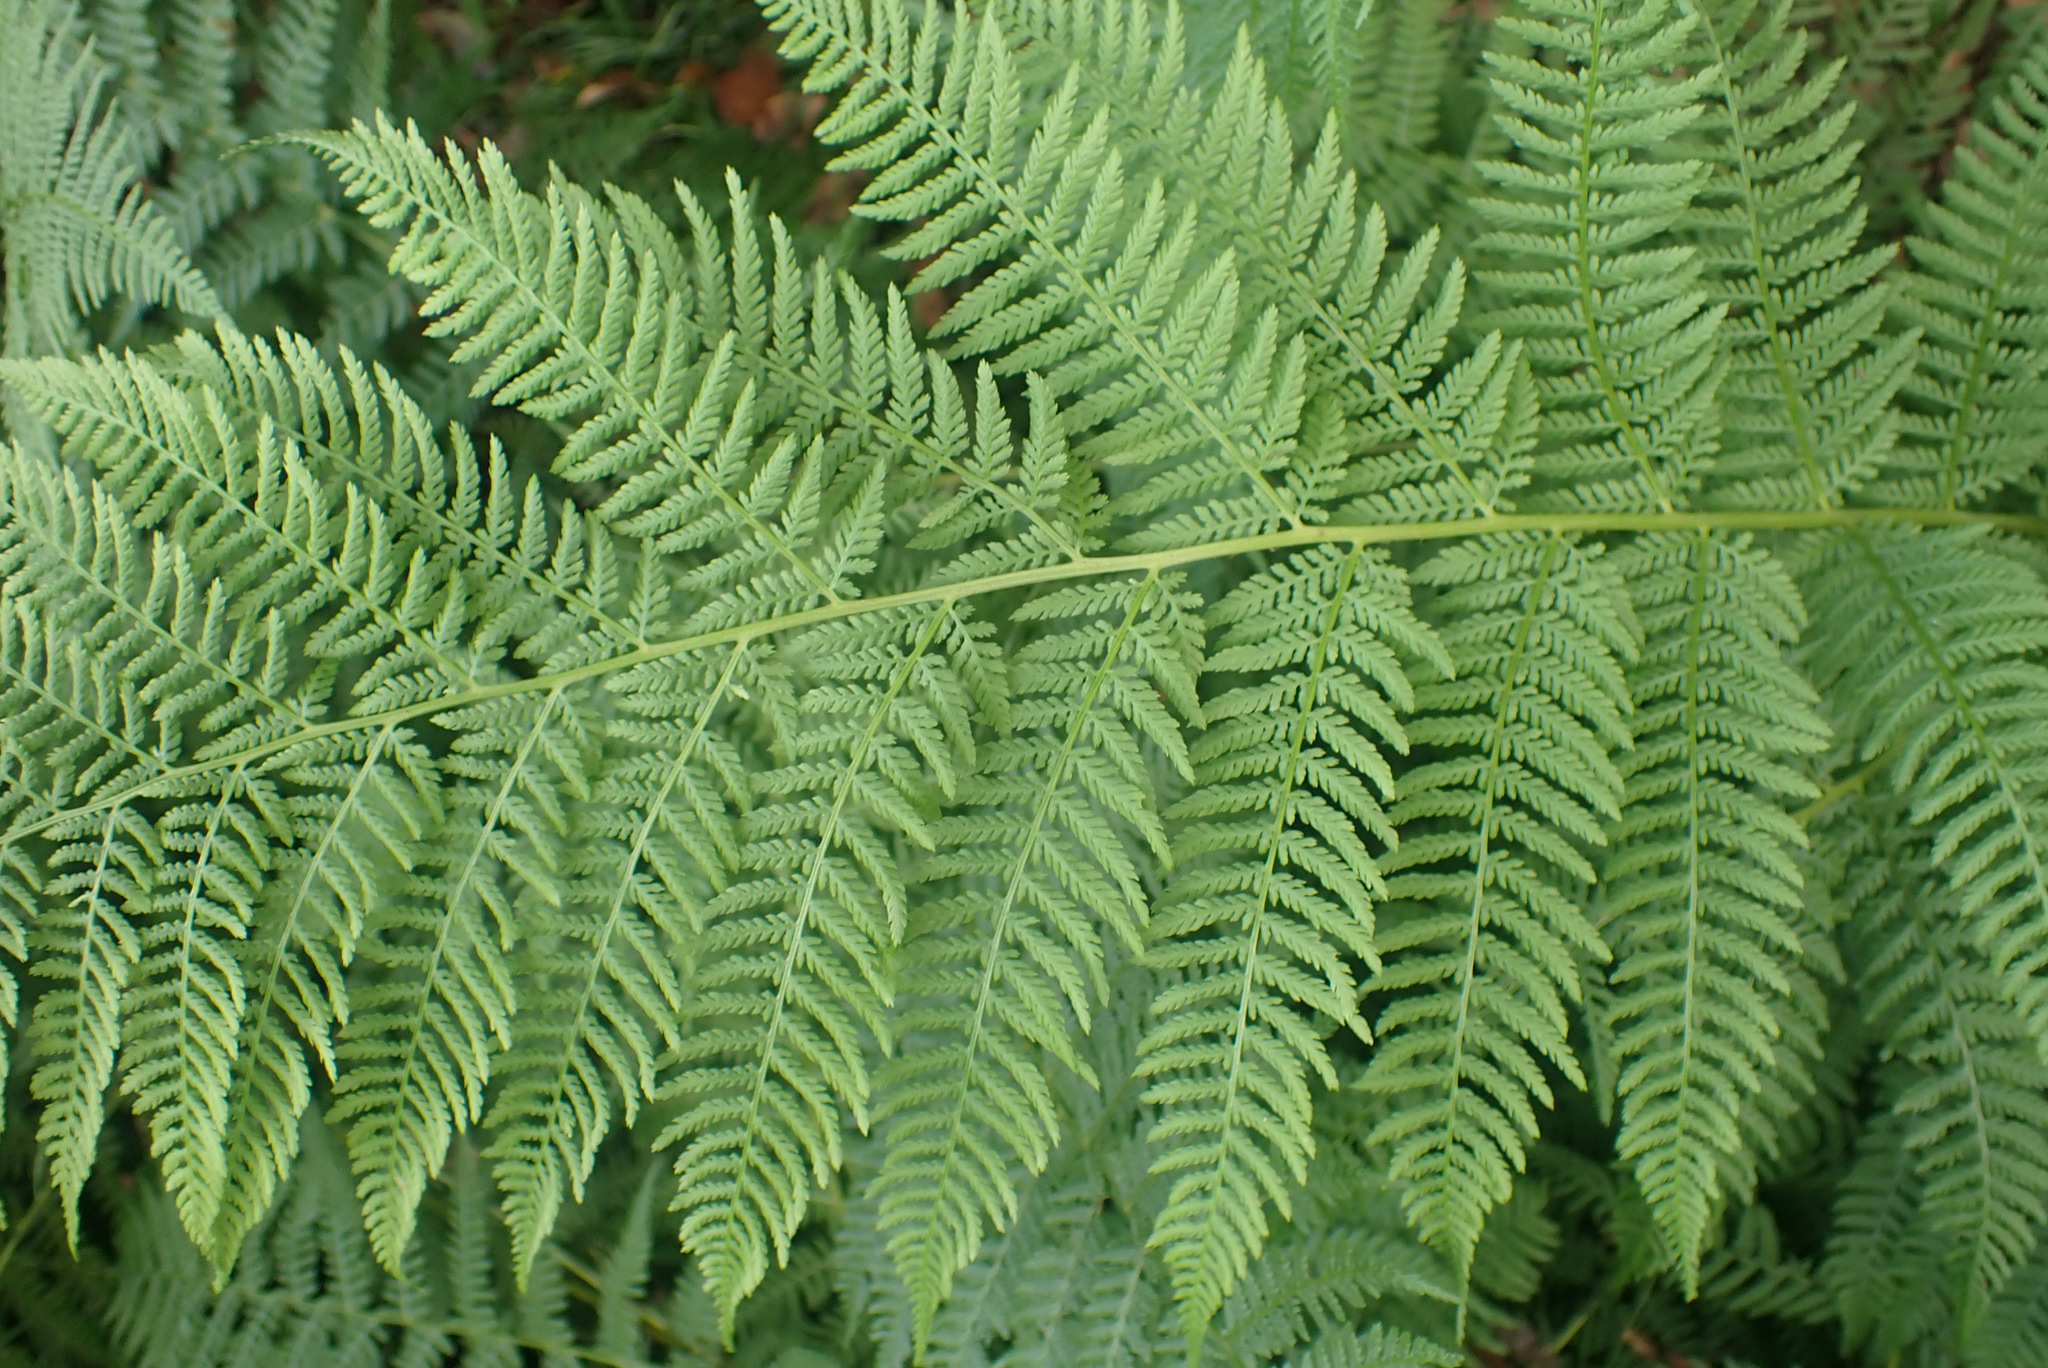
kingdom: Plantae
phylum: Tracheophyta
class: Polypodiopsida
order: Polypodiales
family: Athyriaceae
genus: Athyrium
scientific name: Athyrium filix-femina
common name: Lady fern
